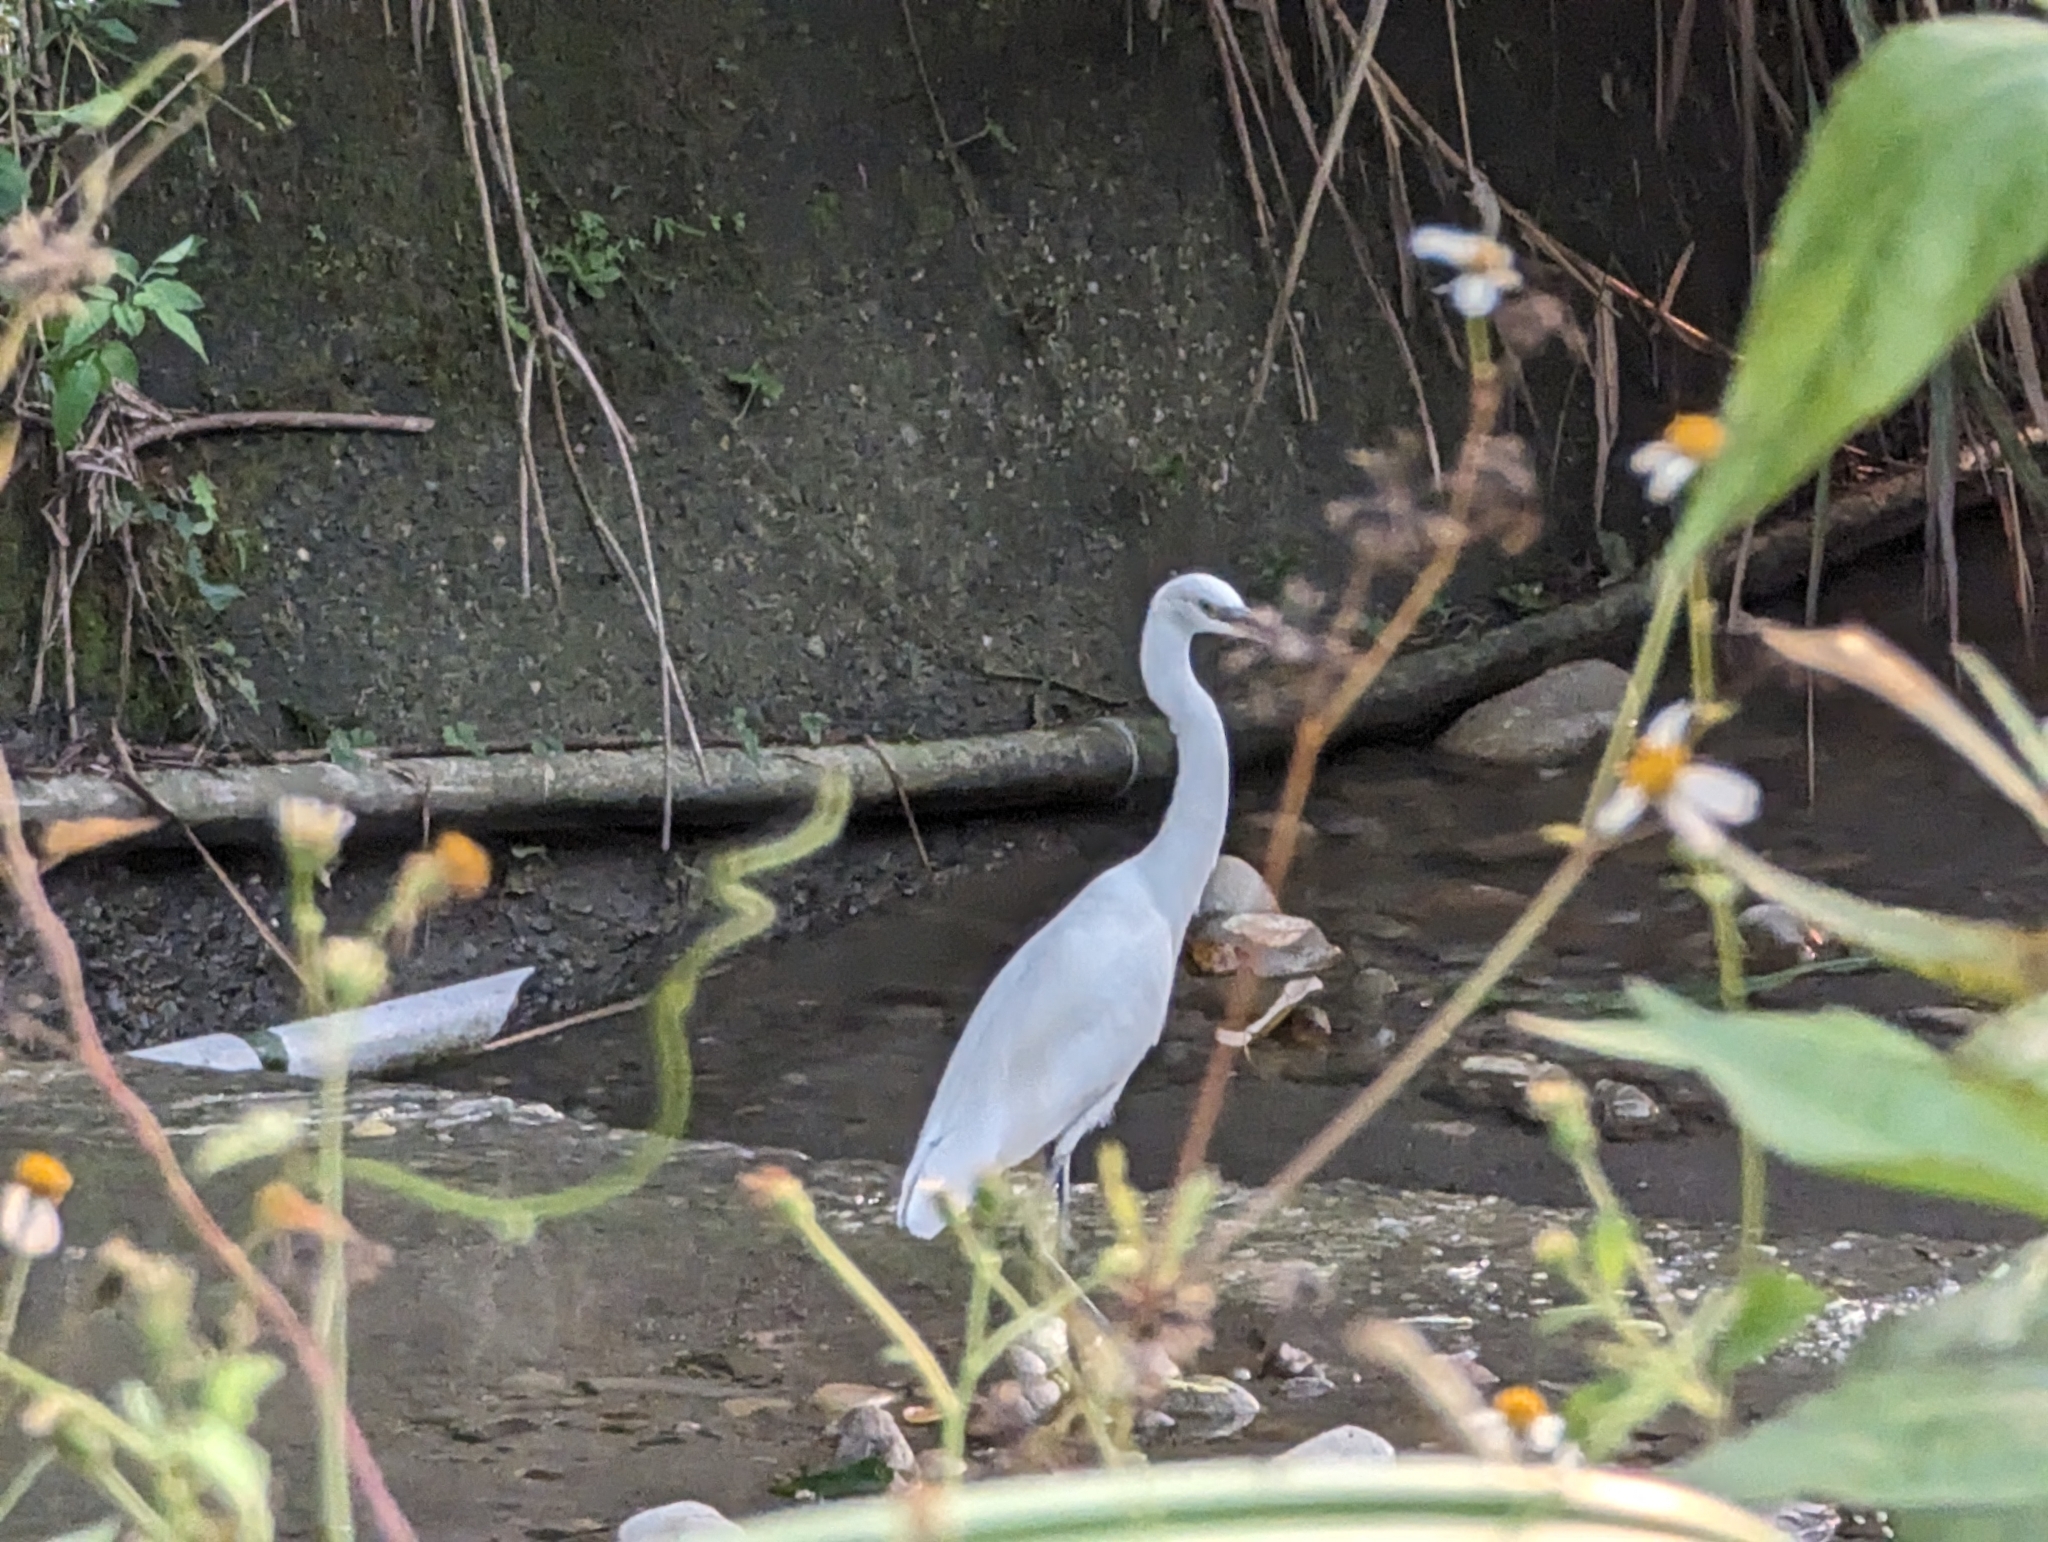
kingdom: Animalia
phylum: Chordata
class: Aves
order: Pelecaniformes
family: Ardeidae
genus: Egretta
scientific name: Egretta garzetta
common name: Little egret
